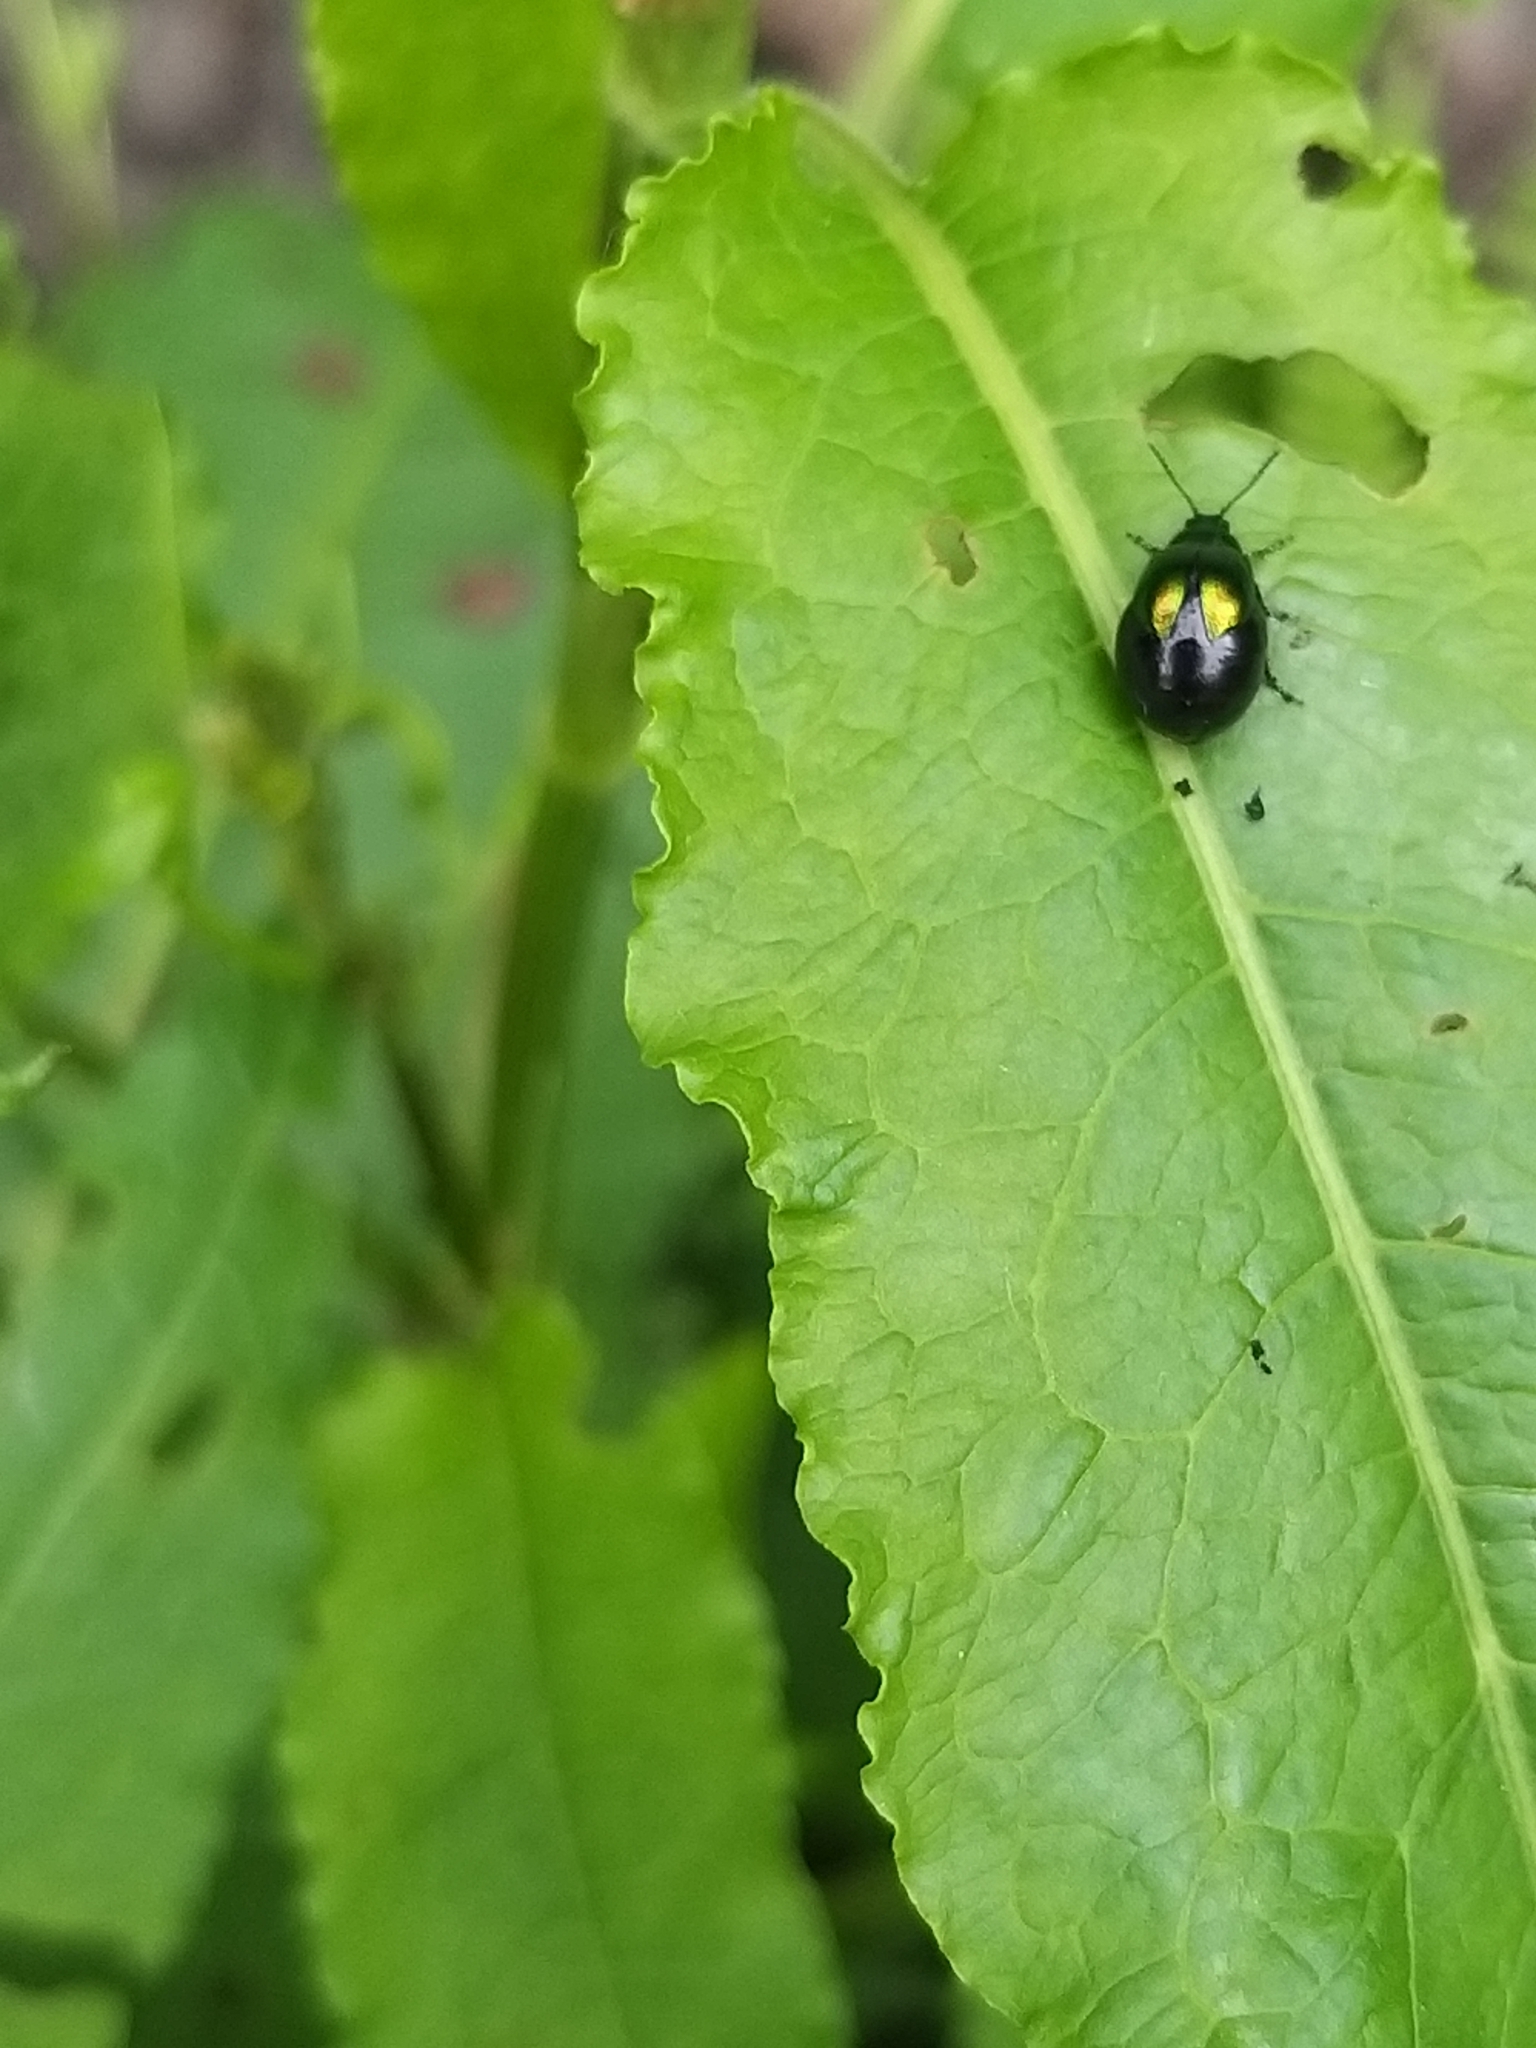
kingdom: Animalia
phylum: Arthropoda
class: Insecta
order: Coleoptera
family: Chrysomelidae
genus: Gastrophysa
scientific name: Gastrophysa viridula
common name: Green dock beetle
